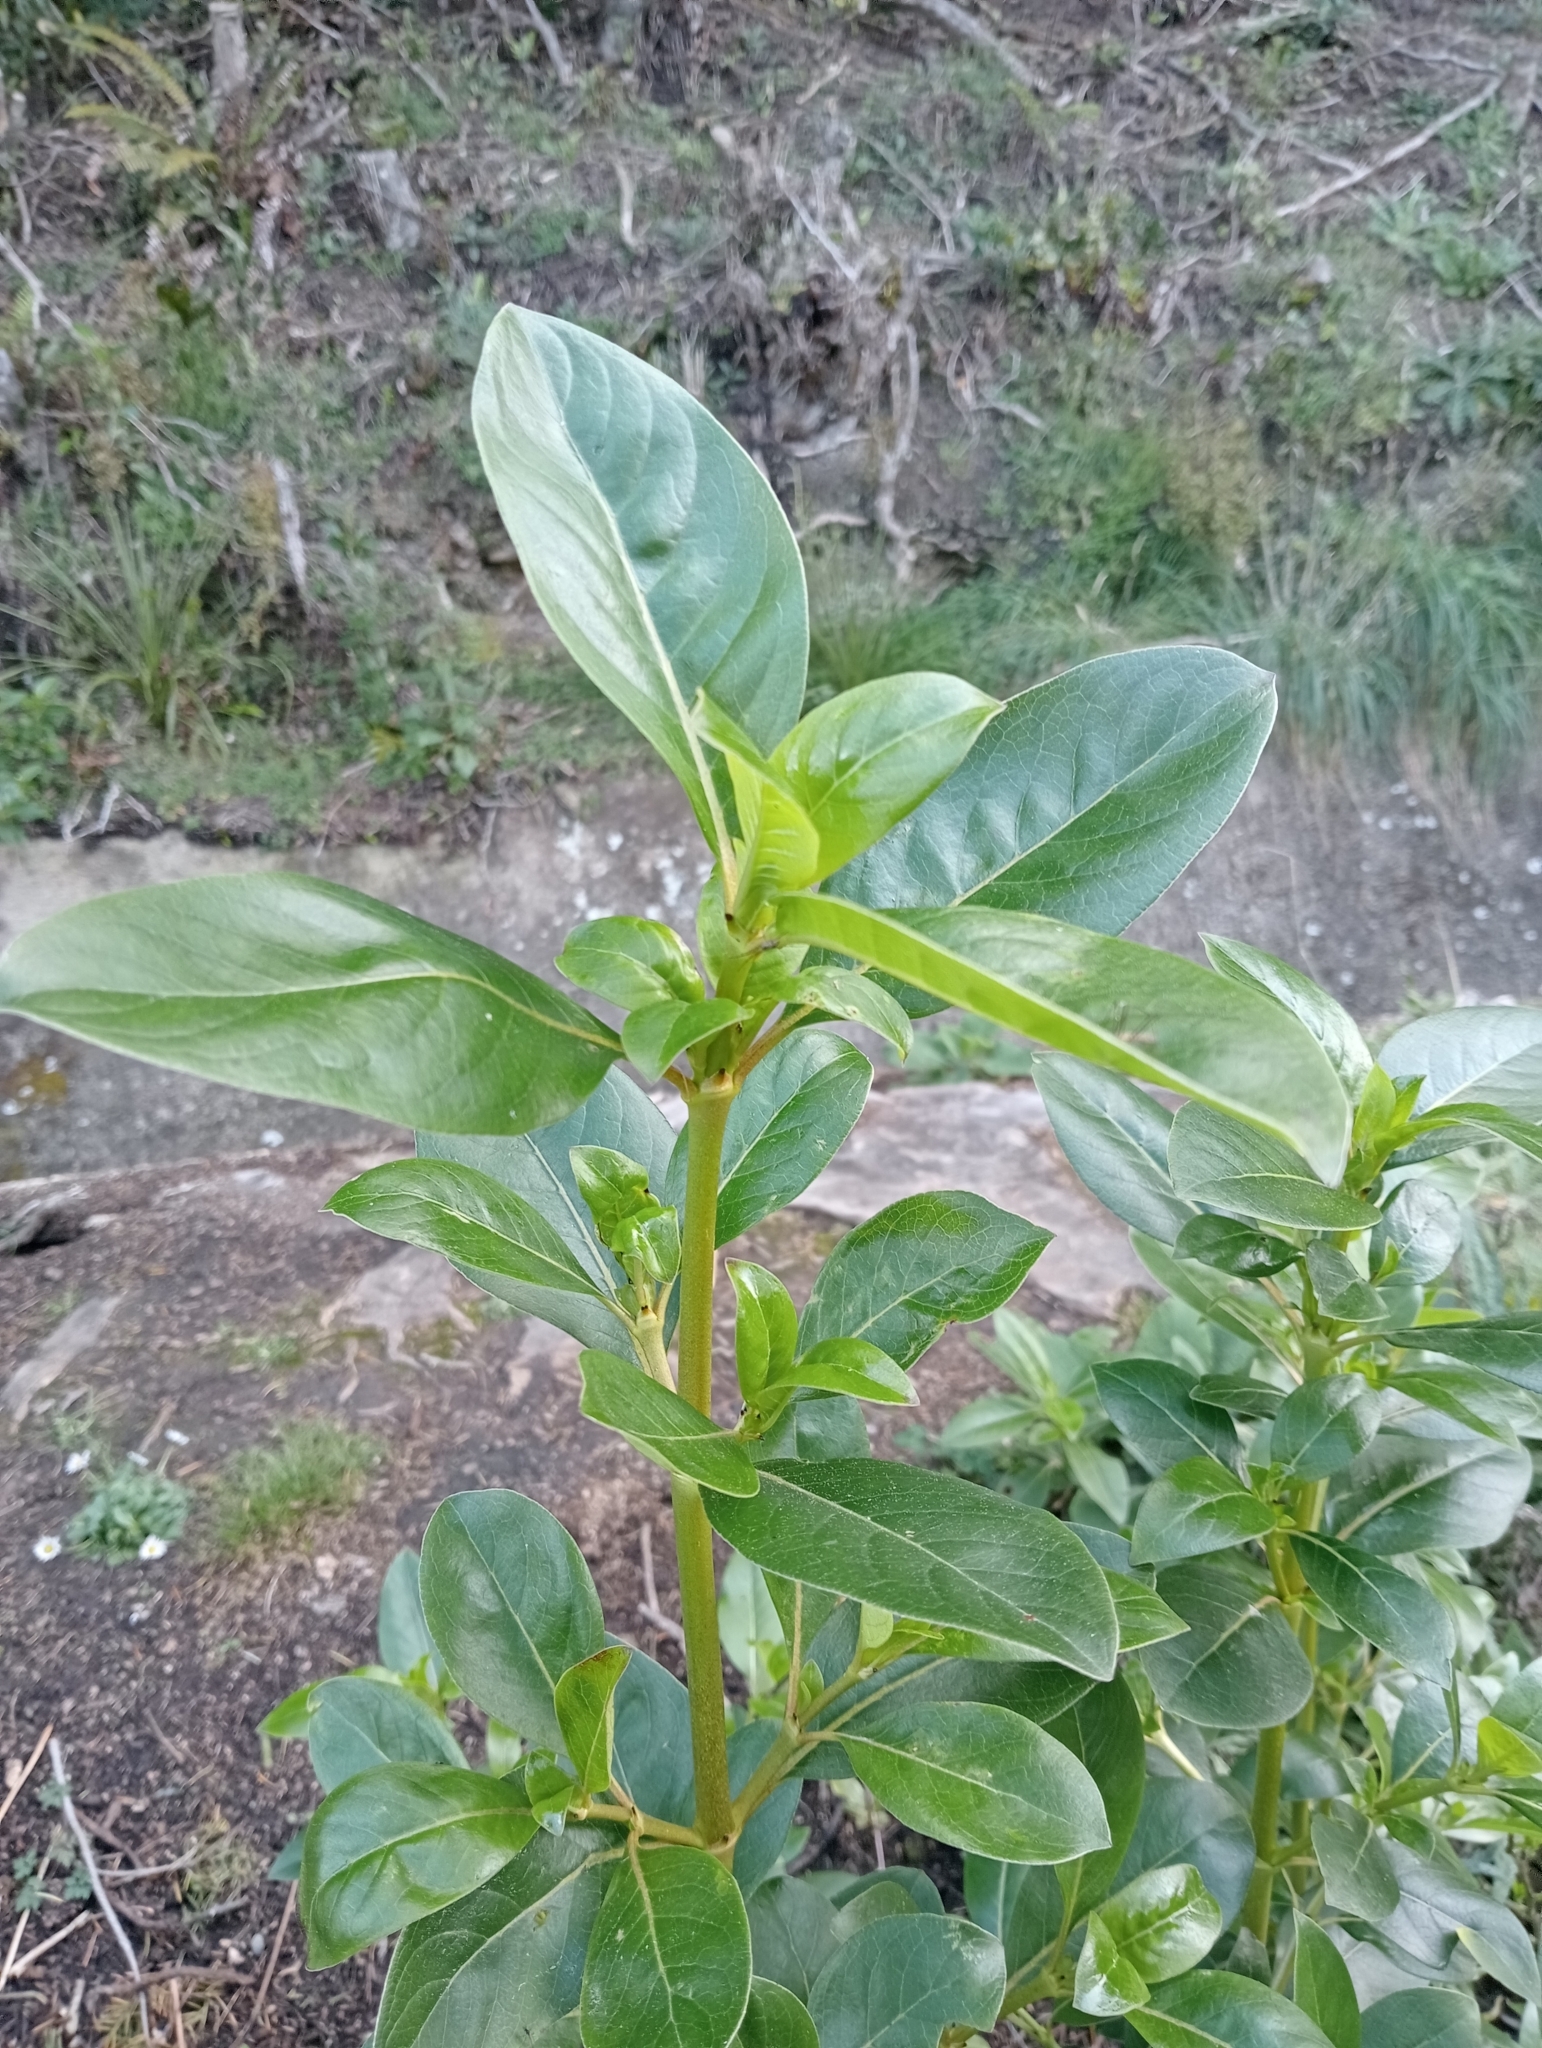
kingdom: Plantae
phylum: Tracheophyta
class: Magnoliopsida
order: Gentianales
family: Rubiaceae
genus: Coprosma
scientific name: Coprosma robusta
